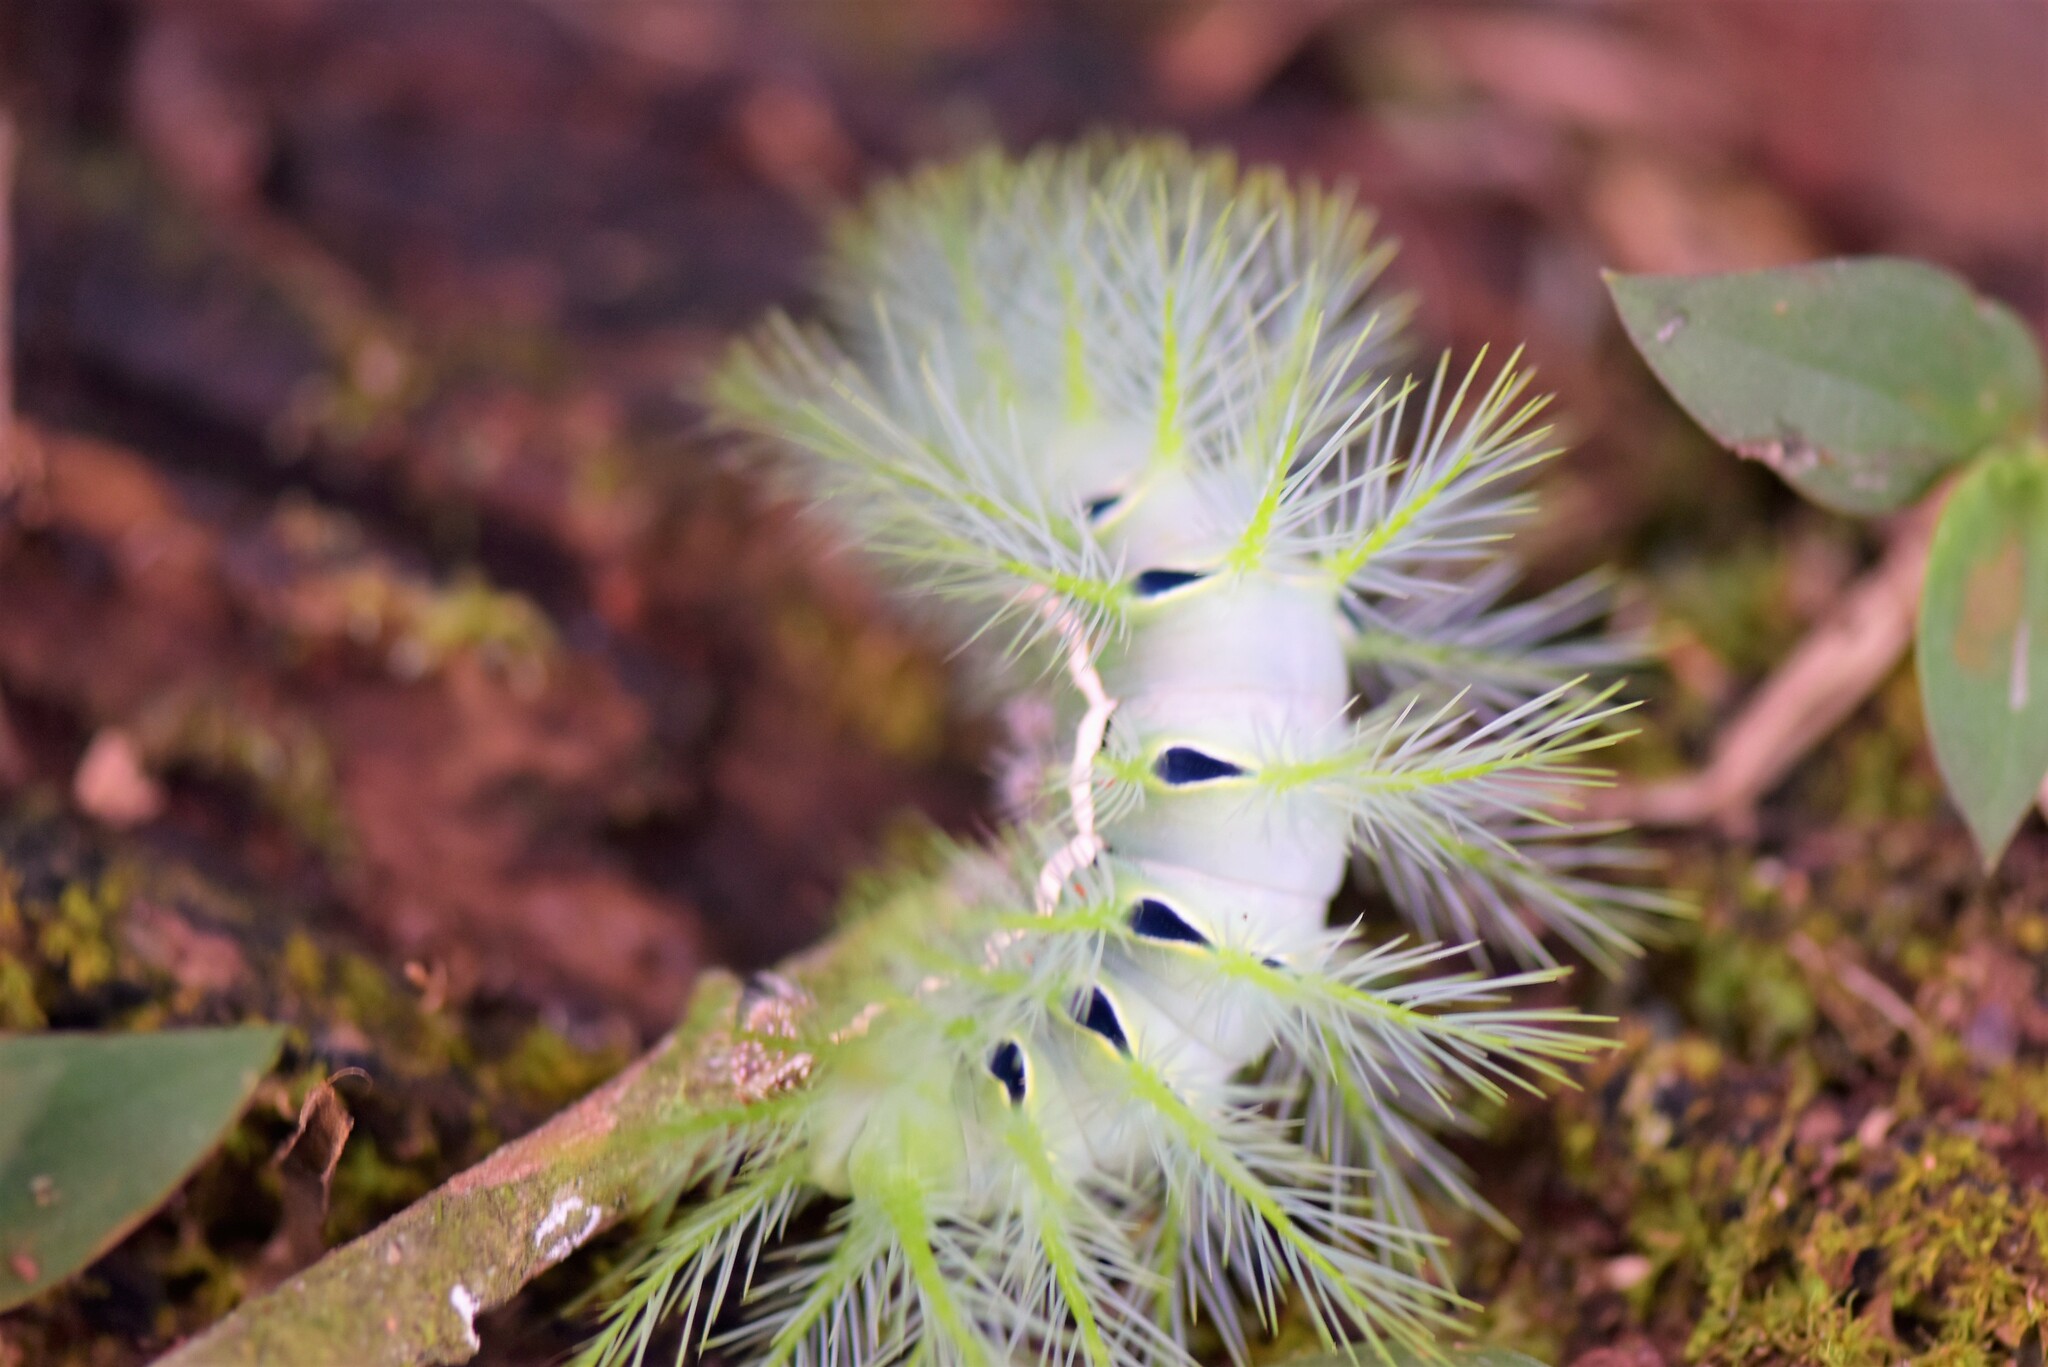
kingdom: Animalia
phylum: Arthropoda
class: Insecta
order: Lepidoptera
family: Saturniidae
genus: Automeris
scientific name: Automeris illustris
